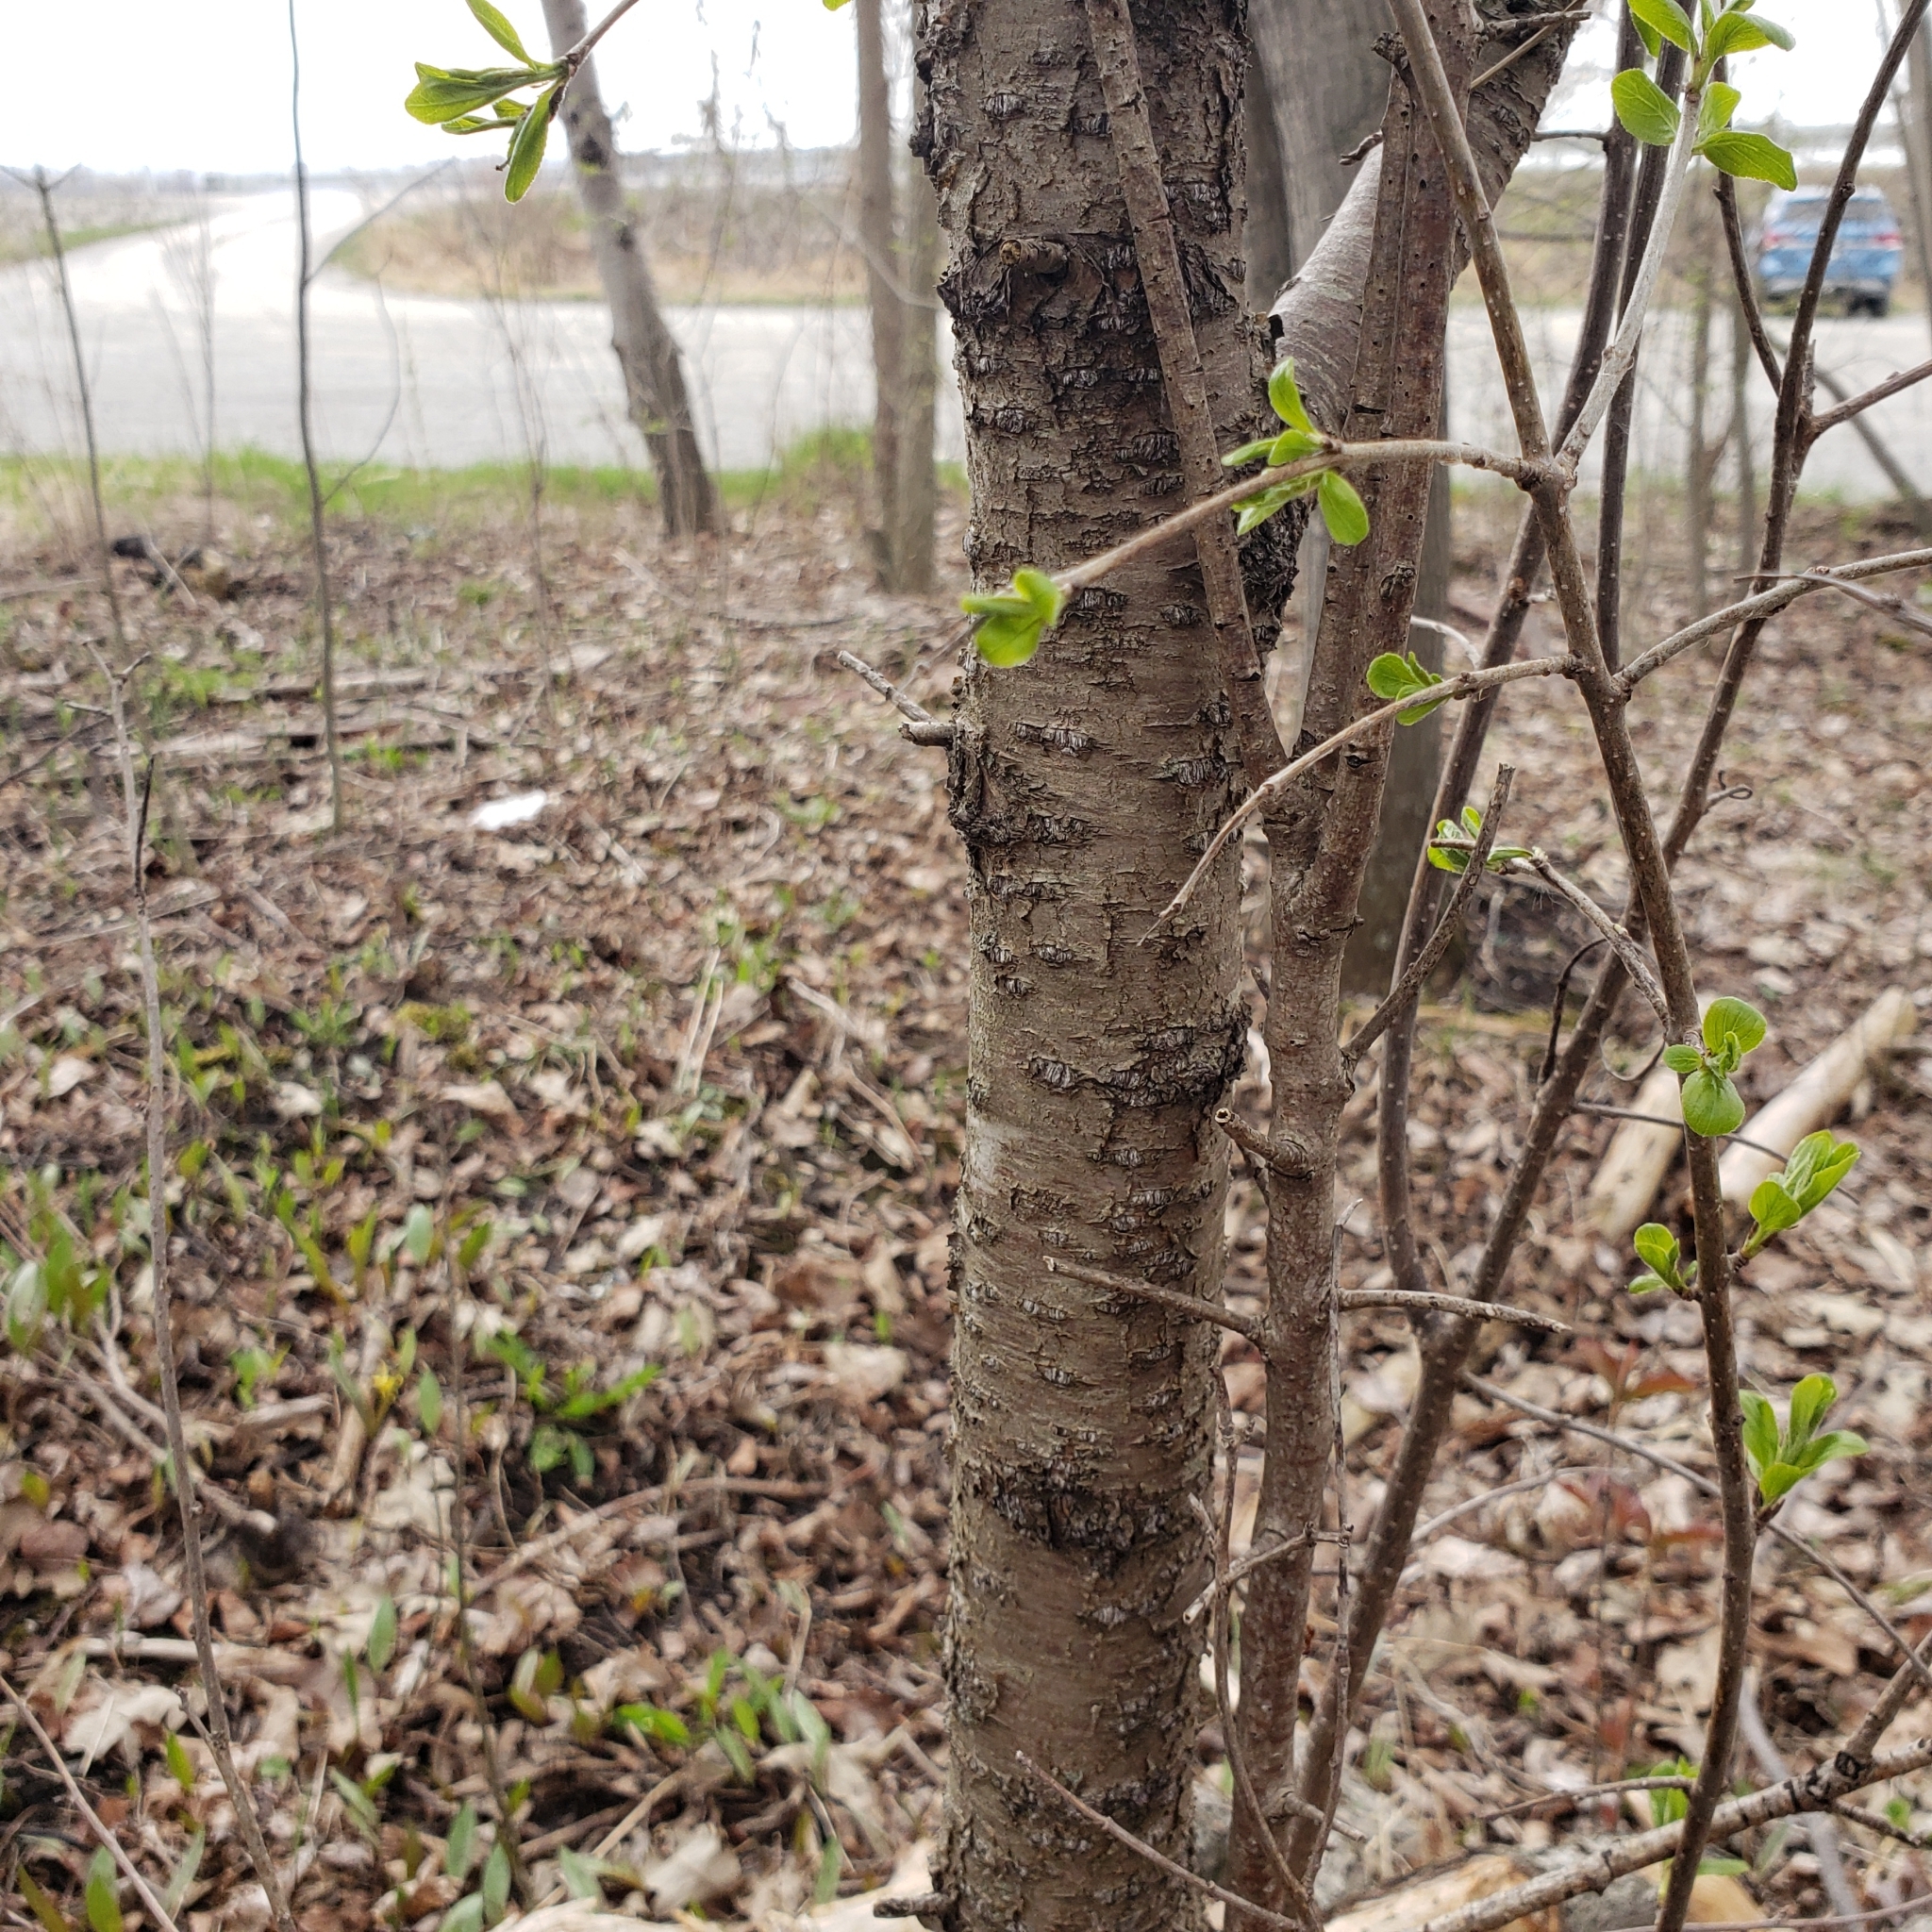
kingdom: Plantae
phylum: Tracheophyta
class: Magnoliopsida
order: Rosales
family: Rhamnaceae
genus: Rhamnus
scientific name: Rhamnus cathartica
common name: Common buckthorn
